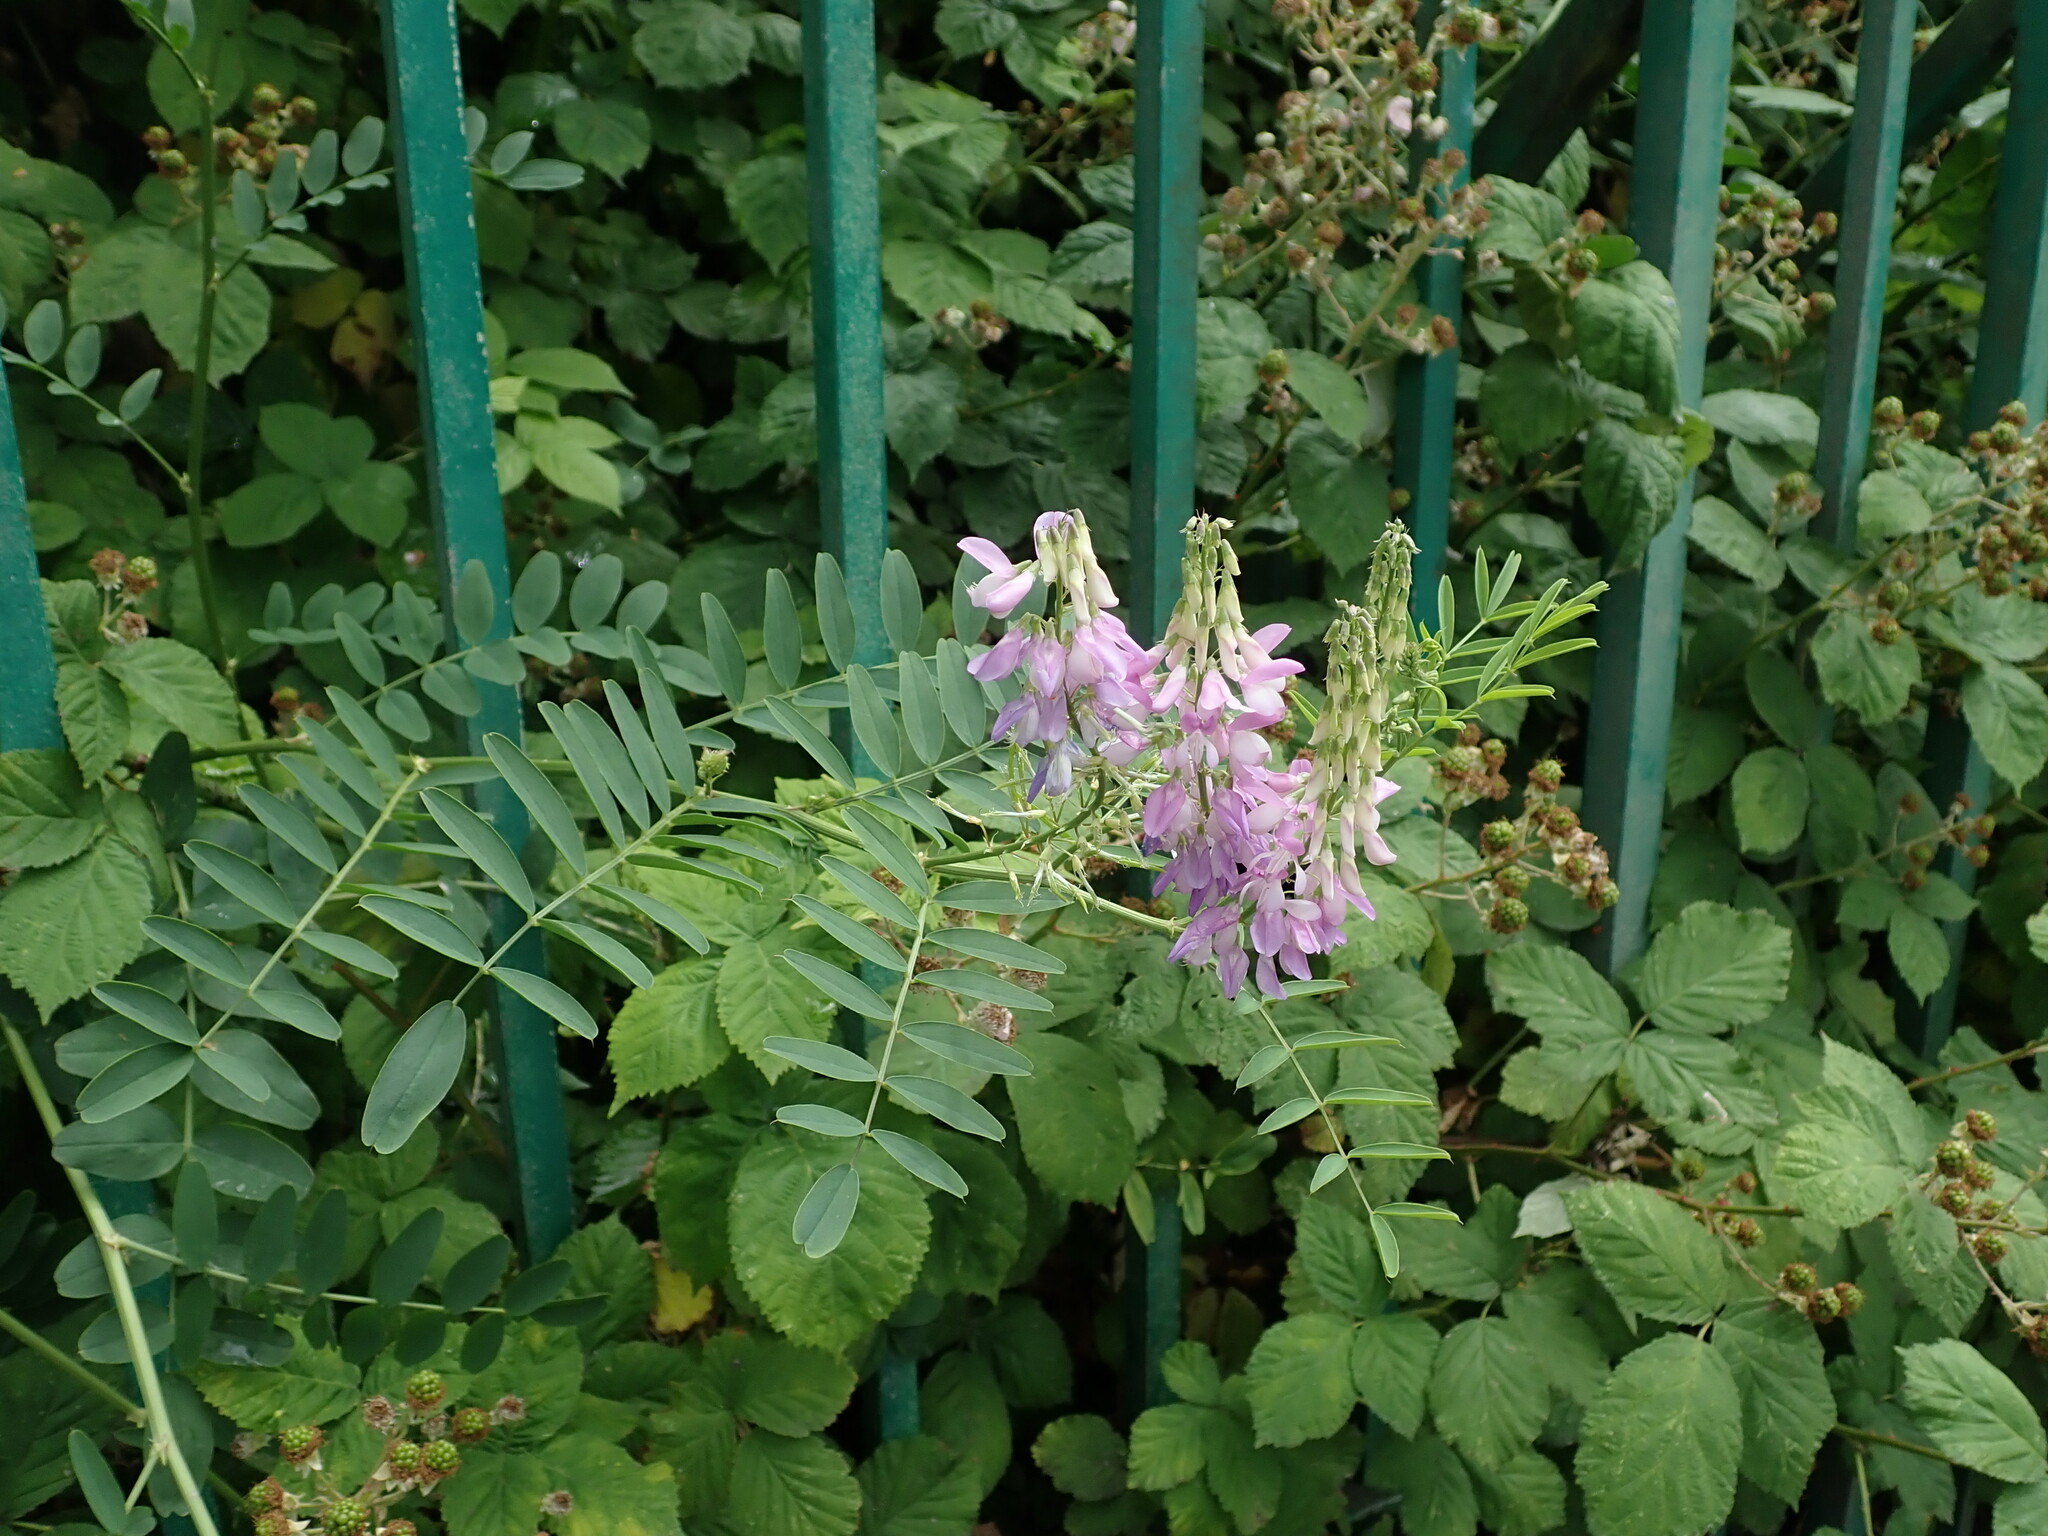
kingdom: Plantae
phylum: Tracheophyta
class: Magnoliopsida
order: Fabales
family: Fabaceae
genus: Galega
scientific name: Galega officinalis
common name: Goat's-rue
